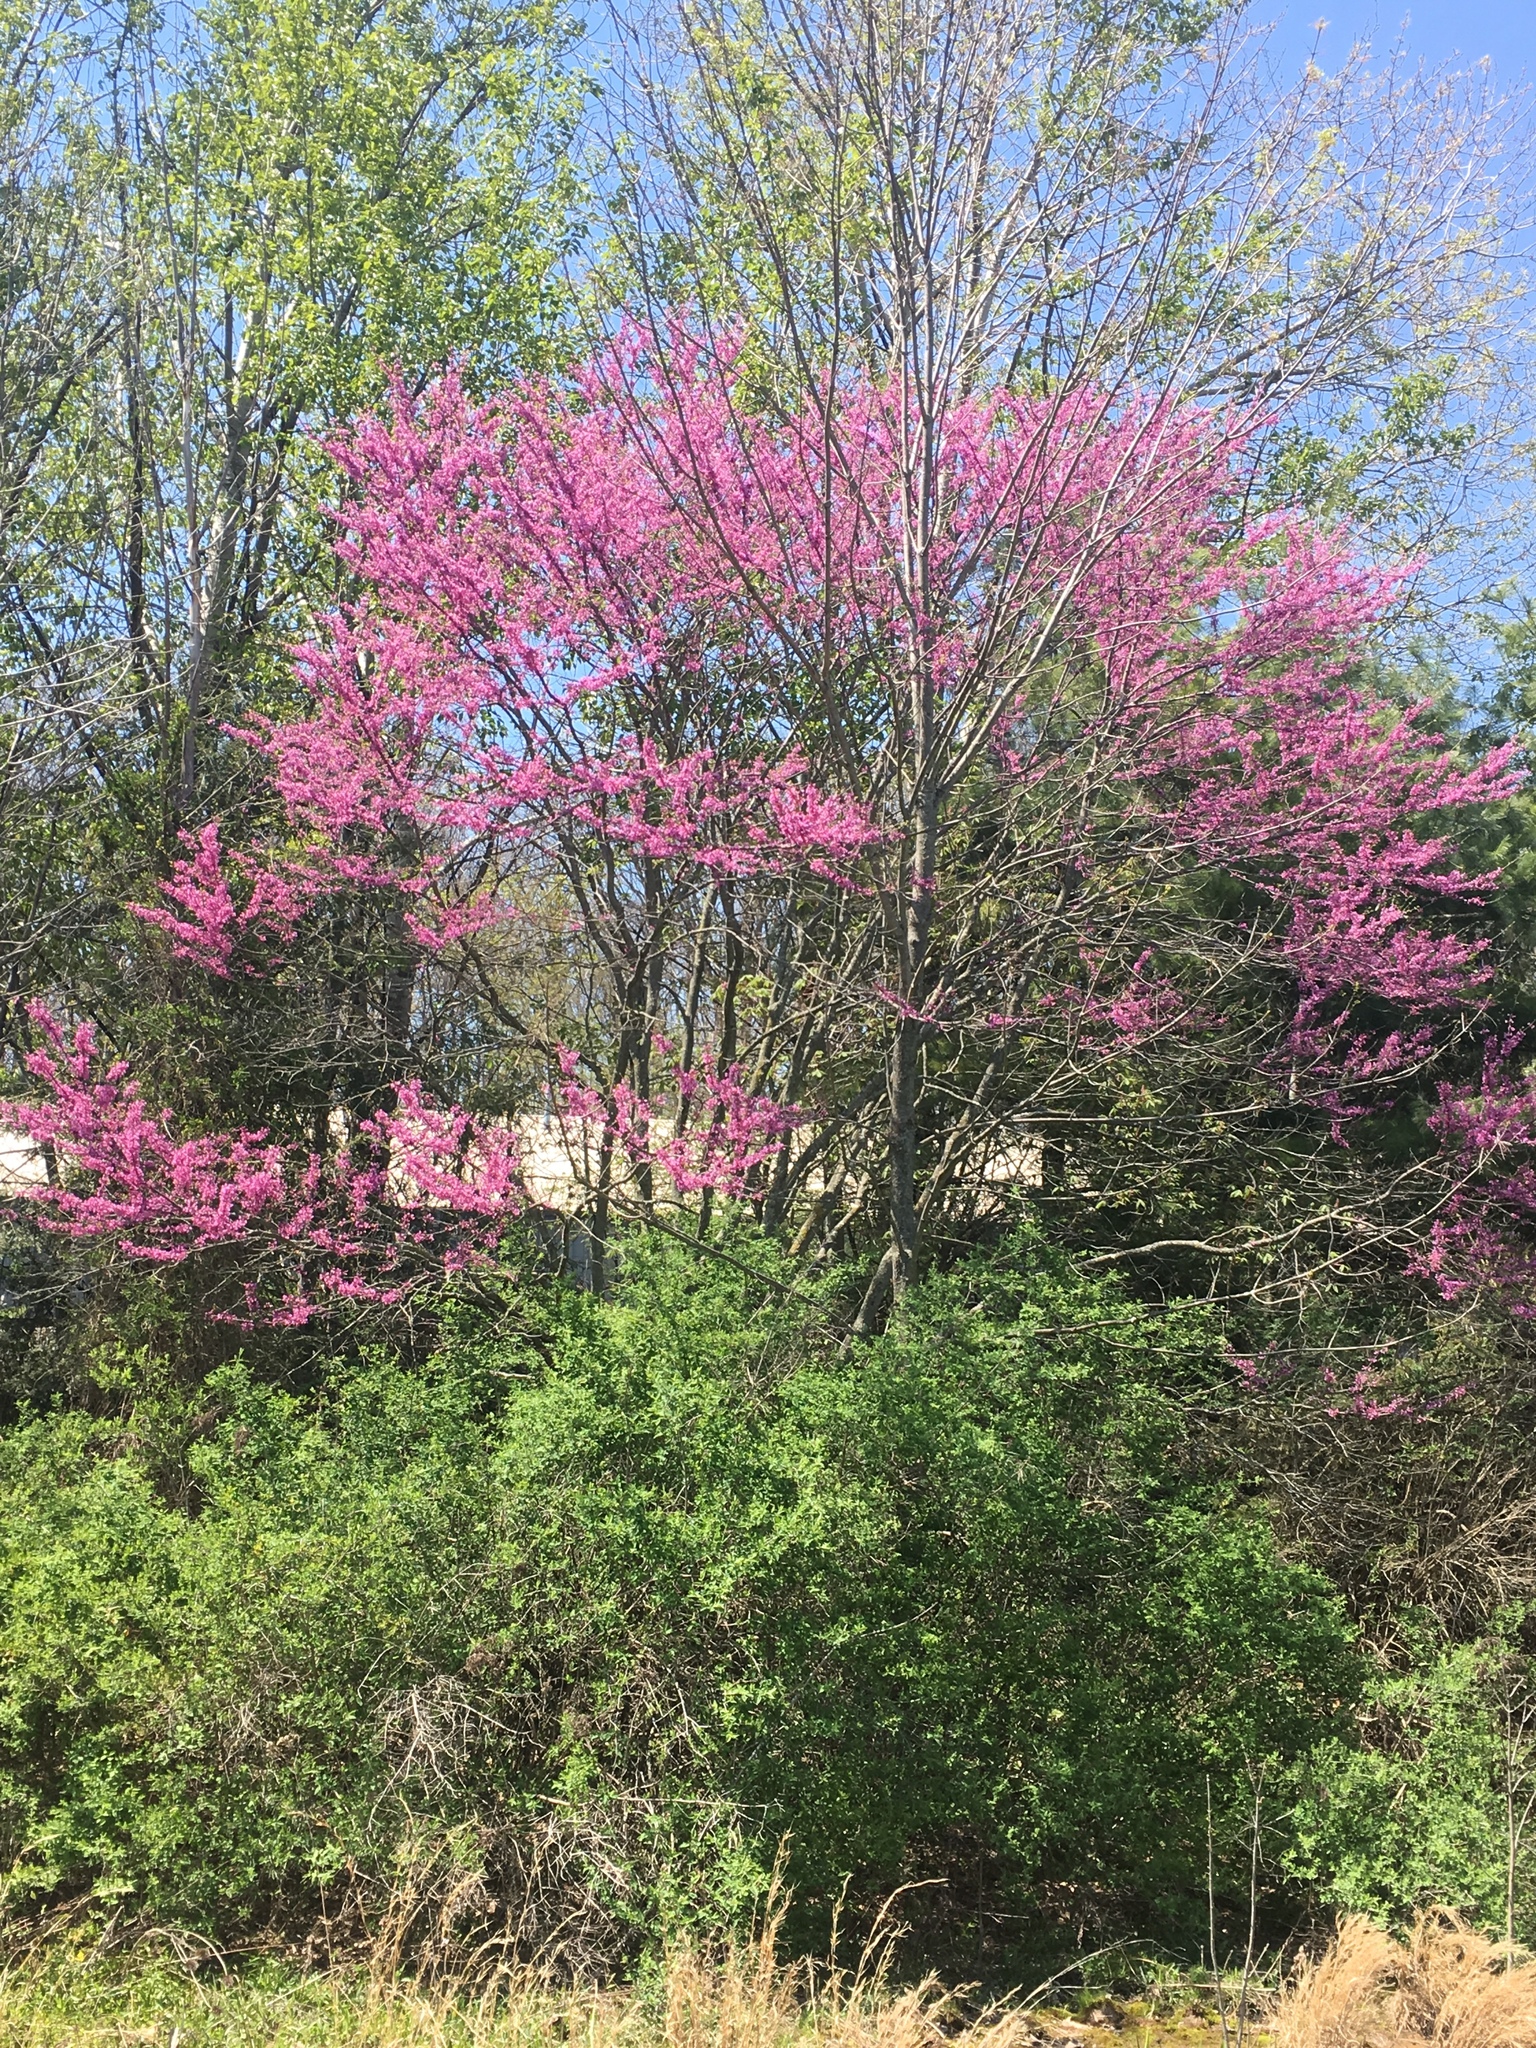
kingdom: Plantae
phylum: Tracheophyta
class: Magnoliopsida
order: Fabales
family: Fabaceae
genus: Cercis
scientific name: Cercis canadensis
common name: Eastern redbud
